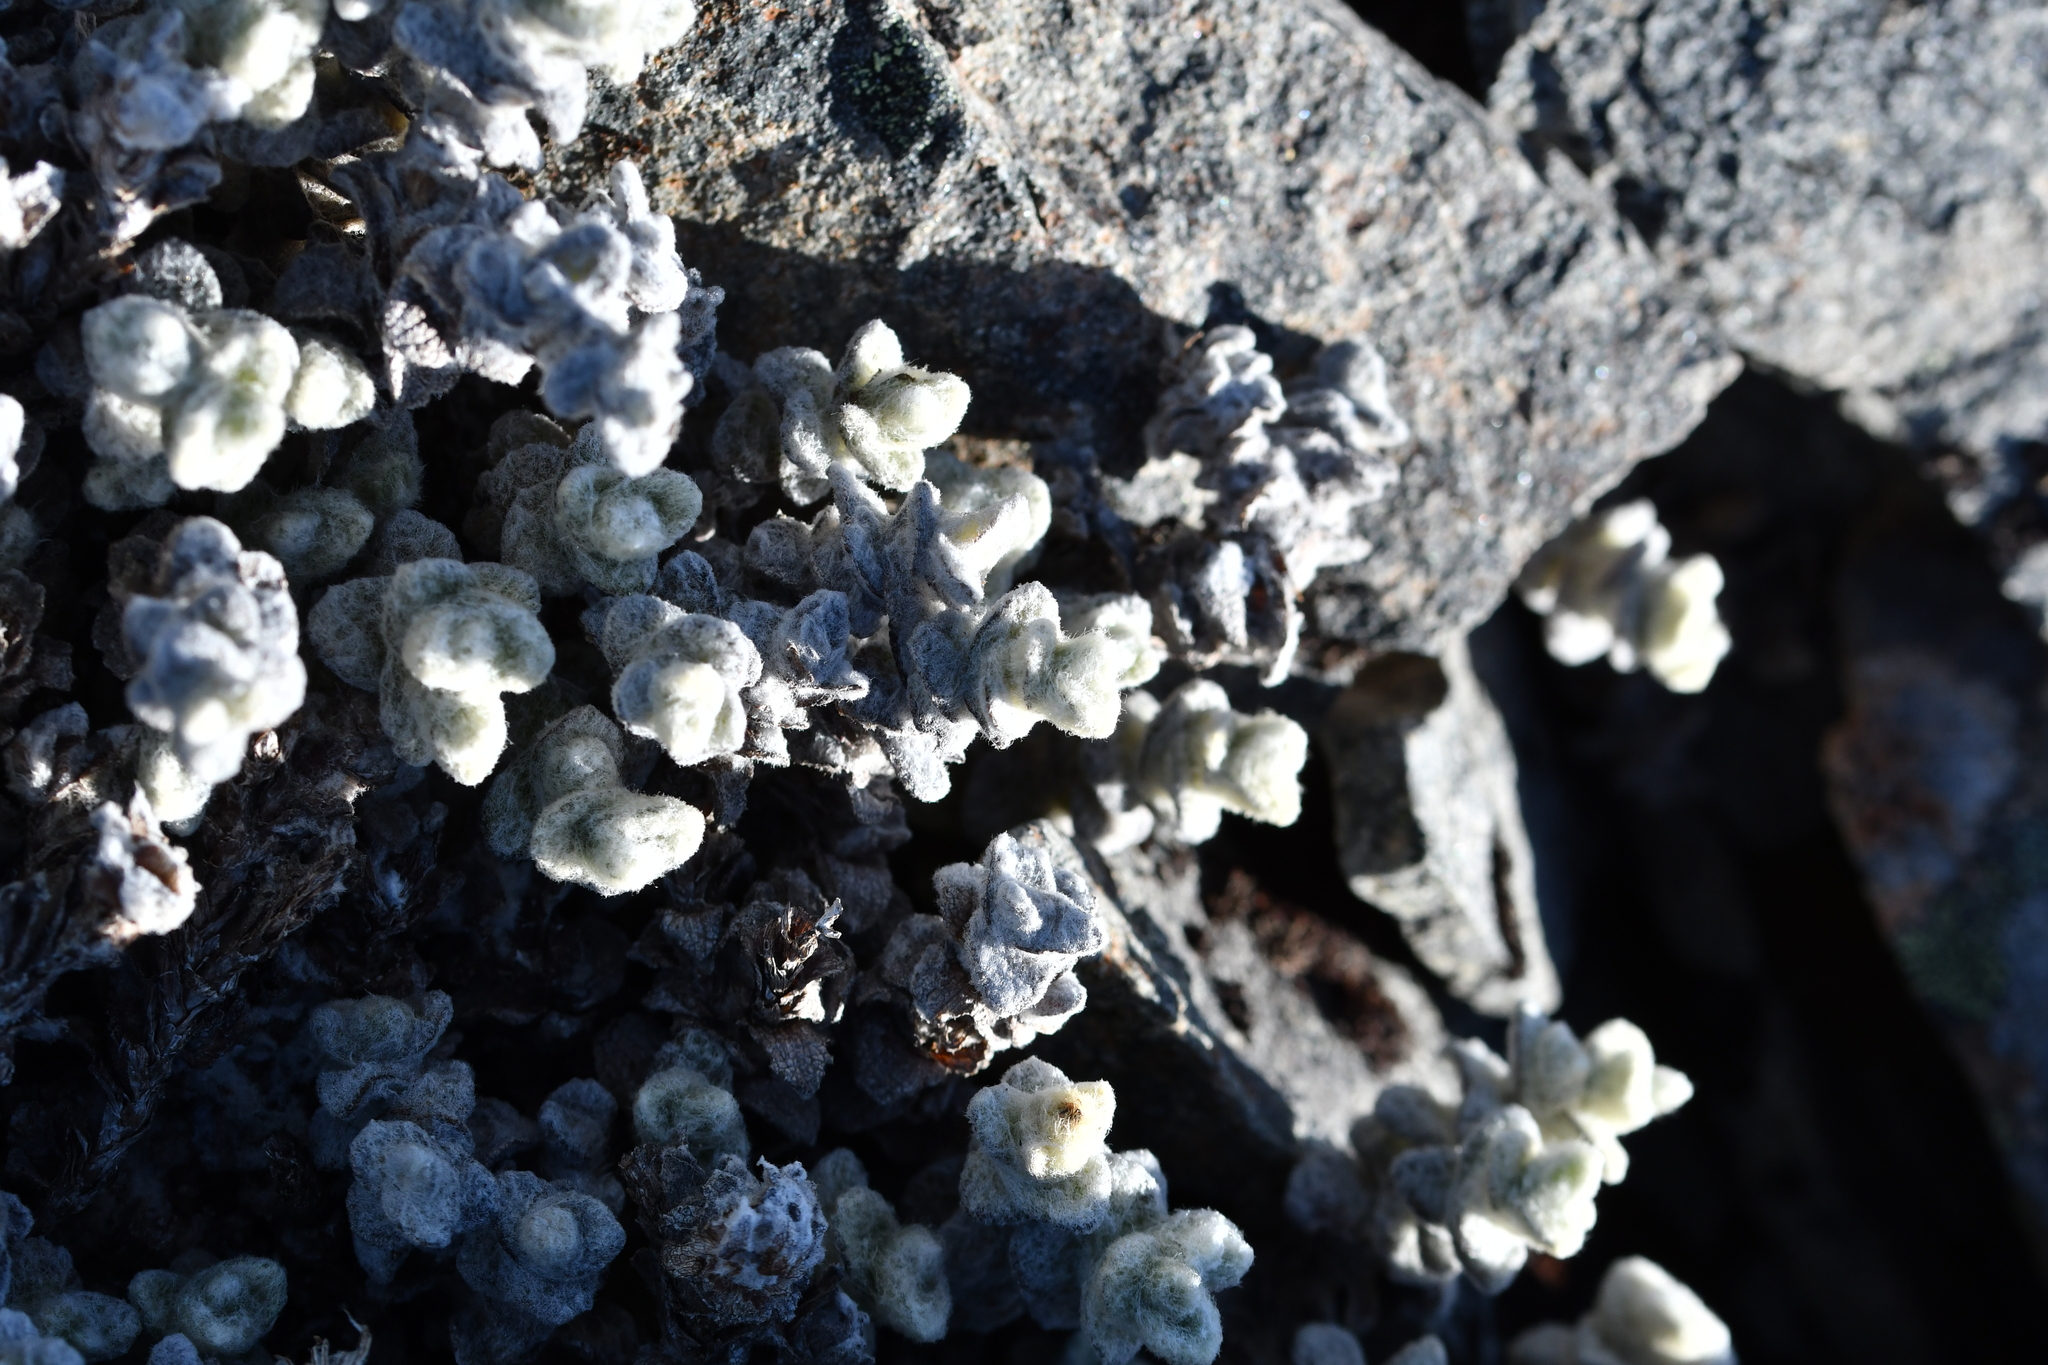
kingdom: Plantae
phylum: Tracheophyta
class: Magnoliopsida
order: Asterales
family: Asteraceae
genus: Haastia
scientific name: Haastia recurva
